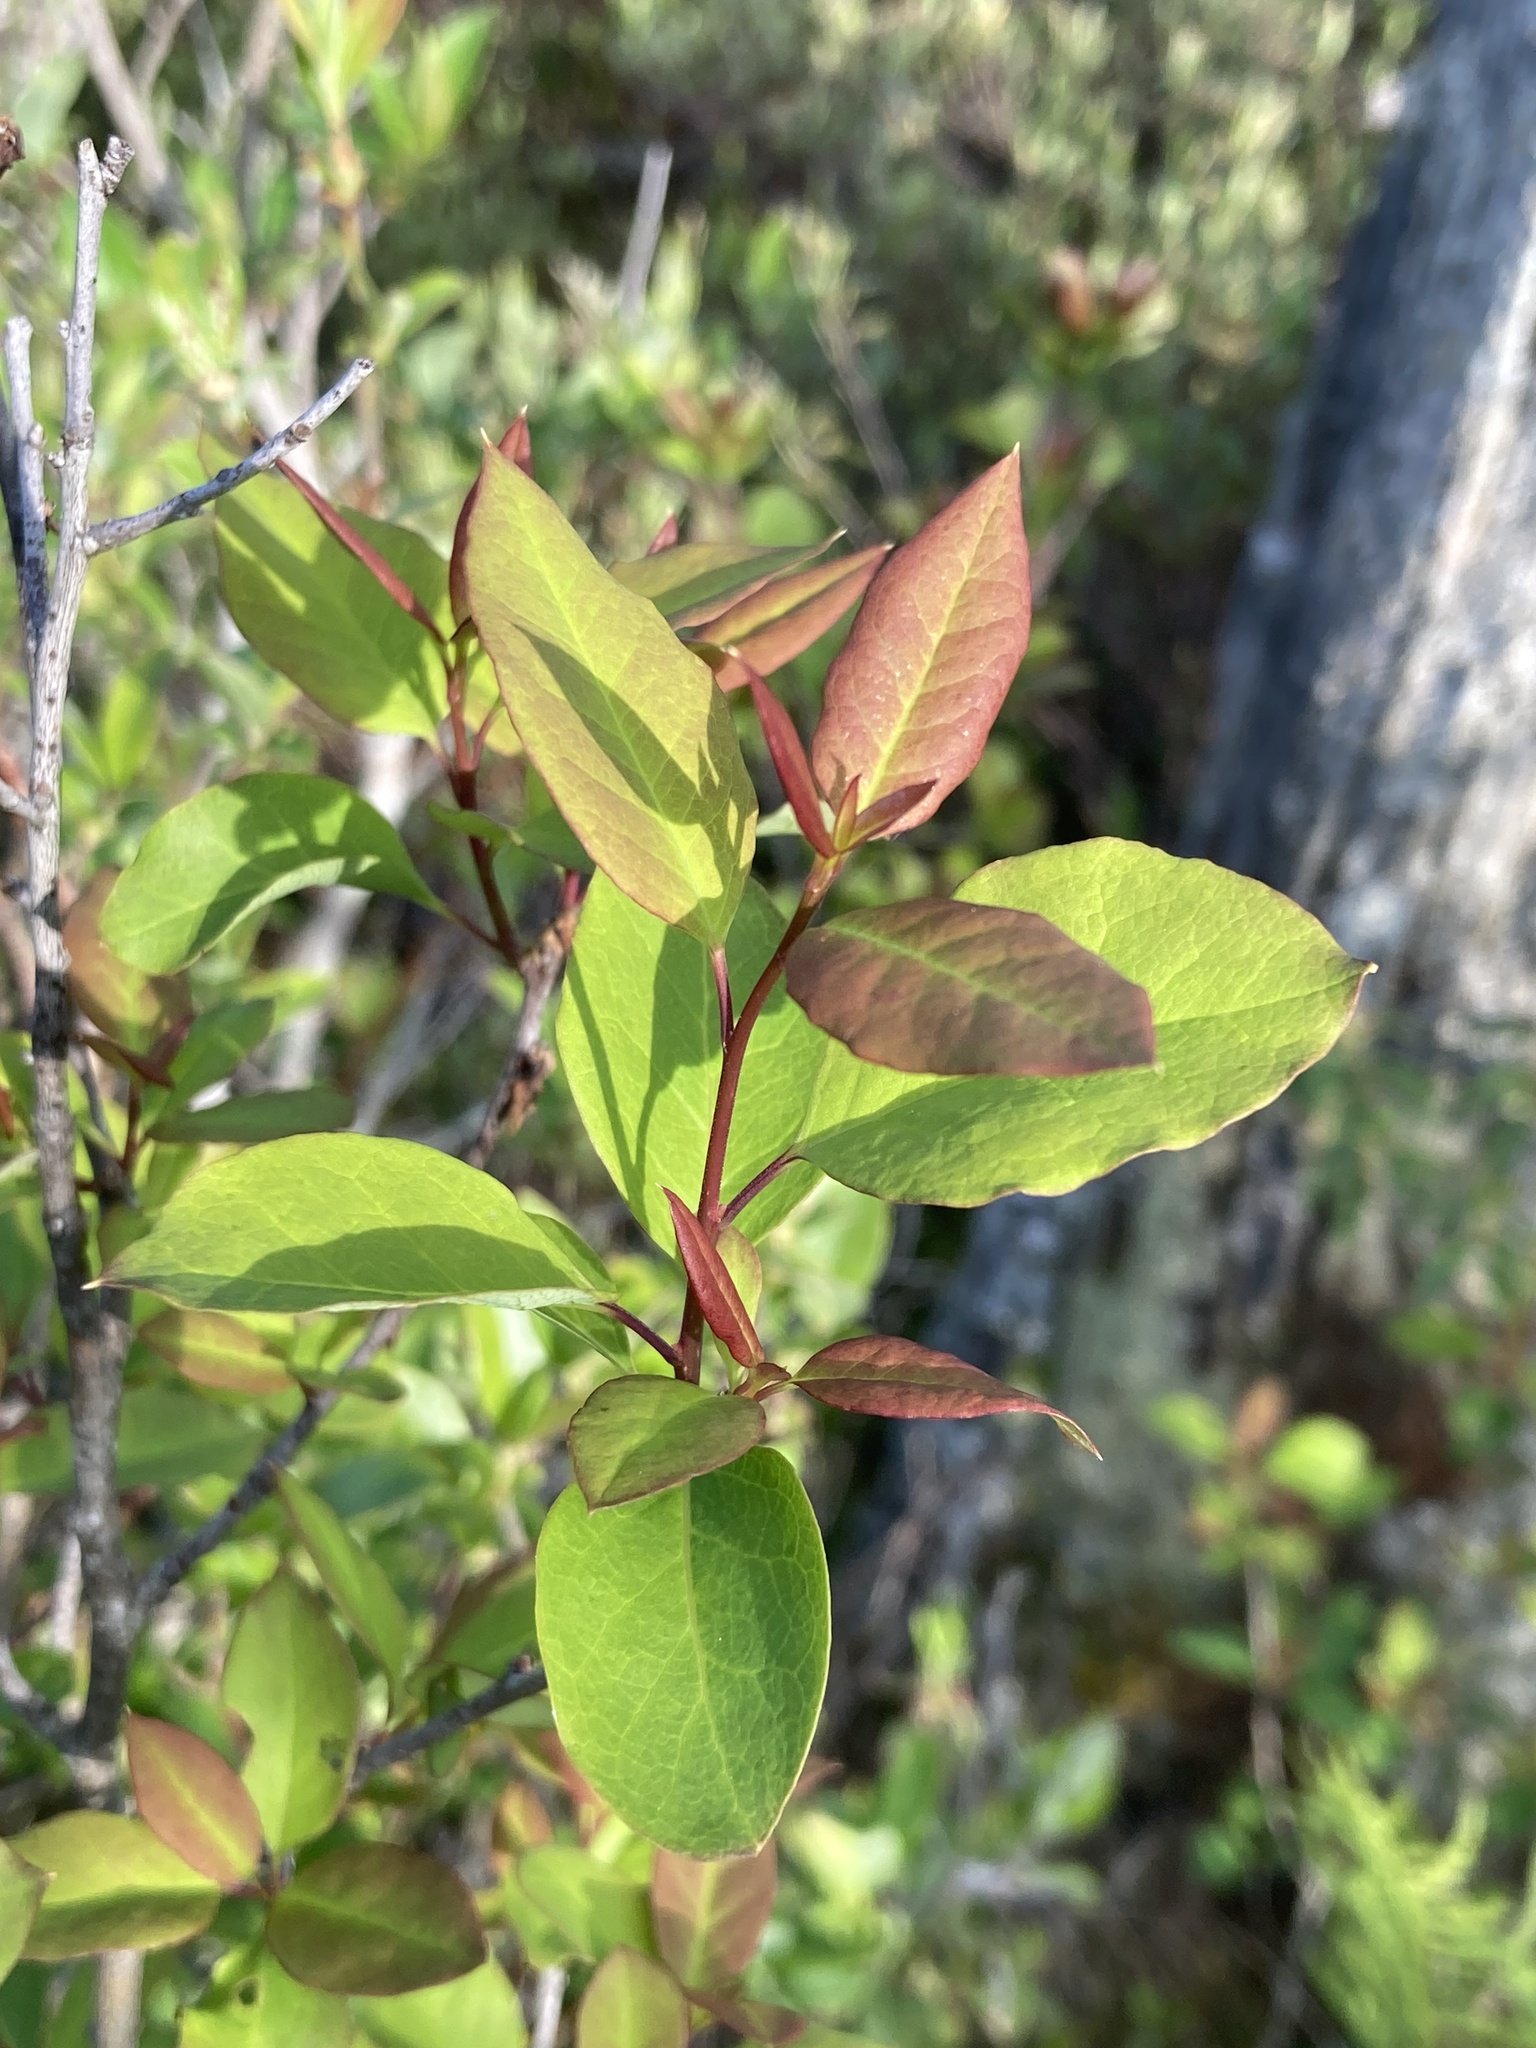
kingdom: Plantae
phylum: Tracheophyta
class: Magnoliopsida
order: Aquifoliales
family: Aquifoliaceae
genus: Ilex
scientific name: Ilex mucronata
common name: Catberry
